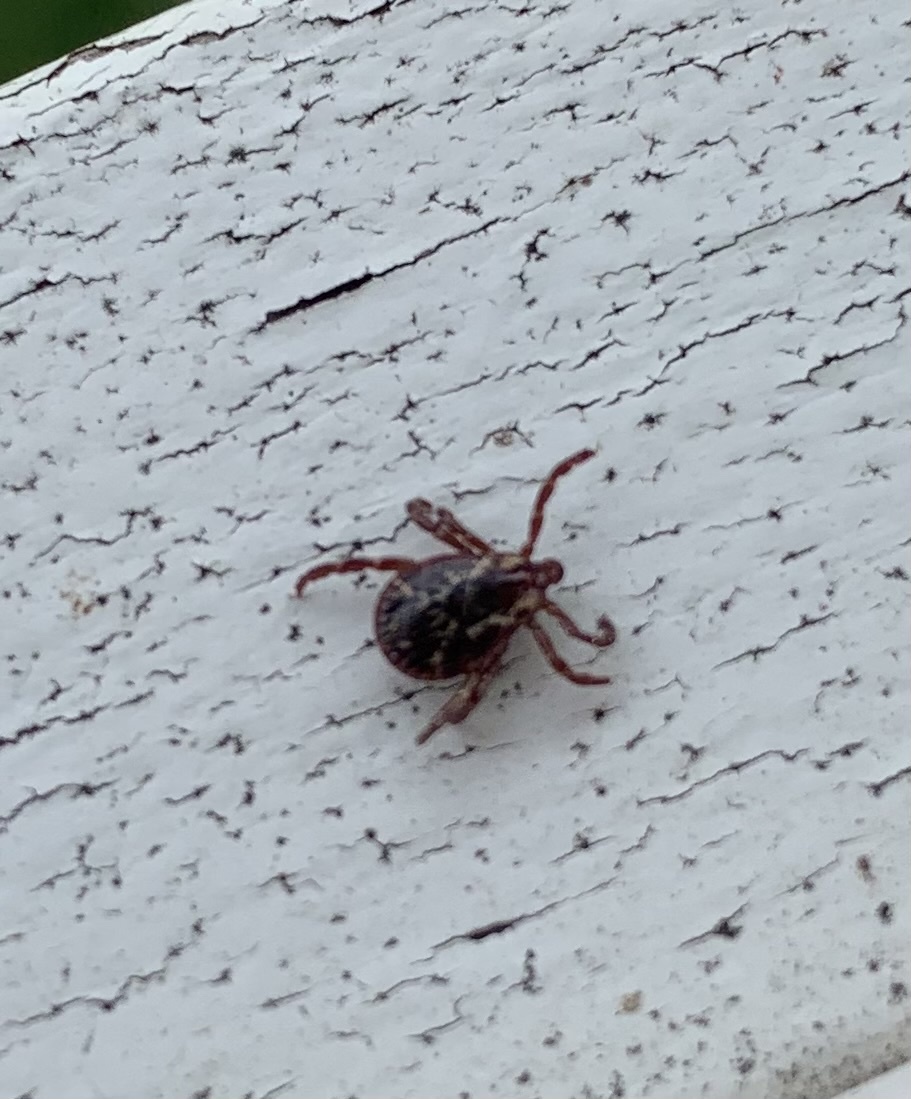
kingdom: Animalia
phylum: Arthropoda
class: Arachnida
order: Ixodida
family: Ixodidae
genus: Dermacentor
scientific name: Dermacentor variabilis
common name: American dog tick
